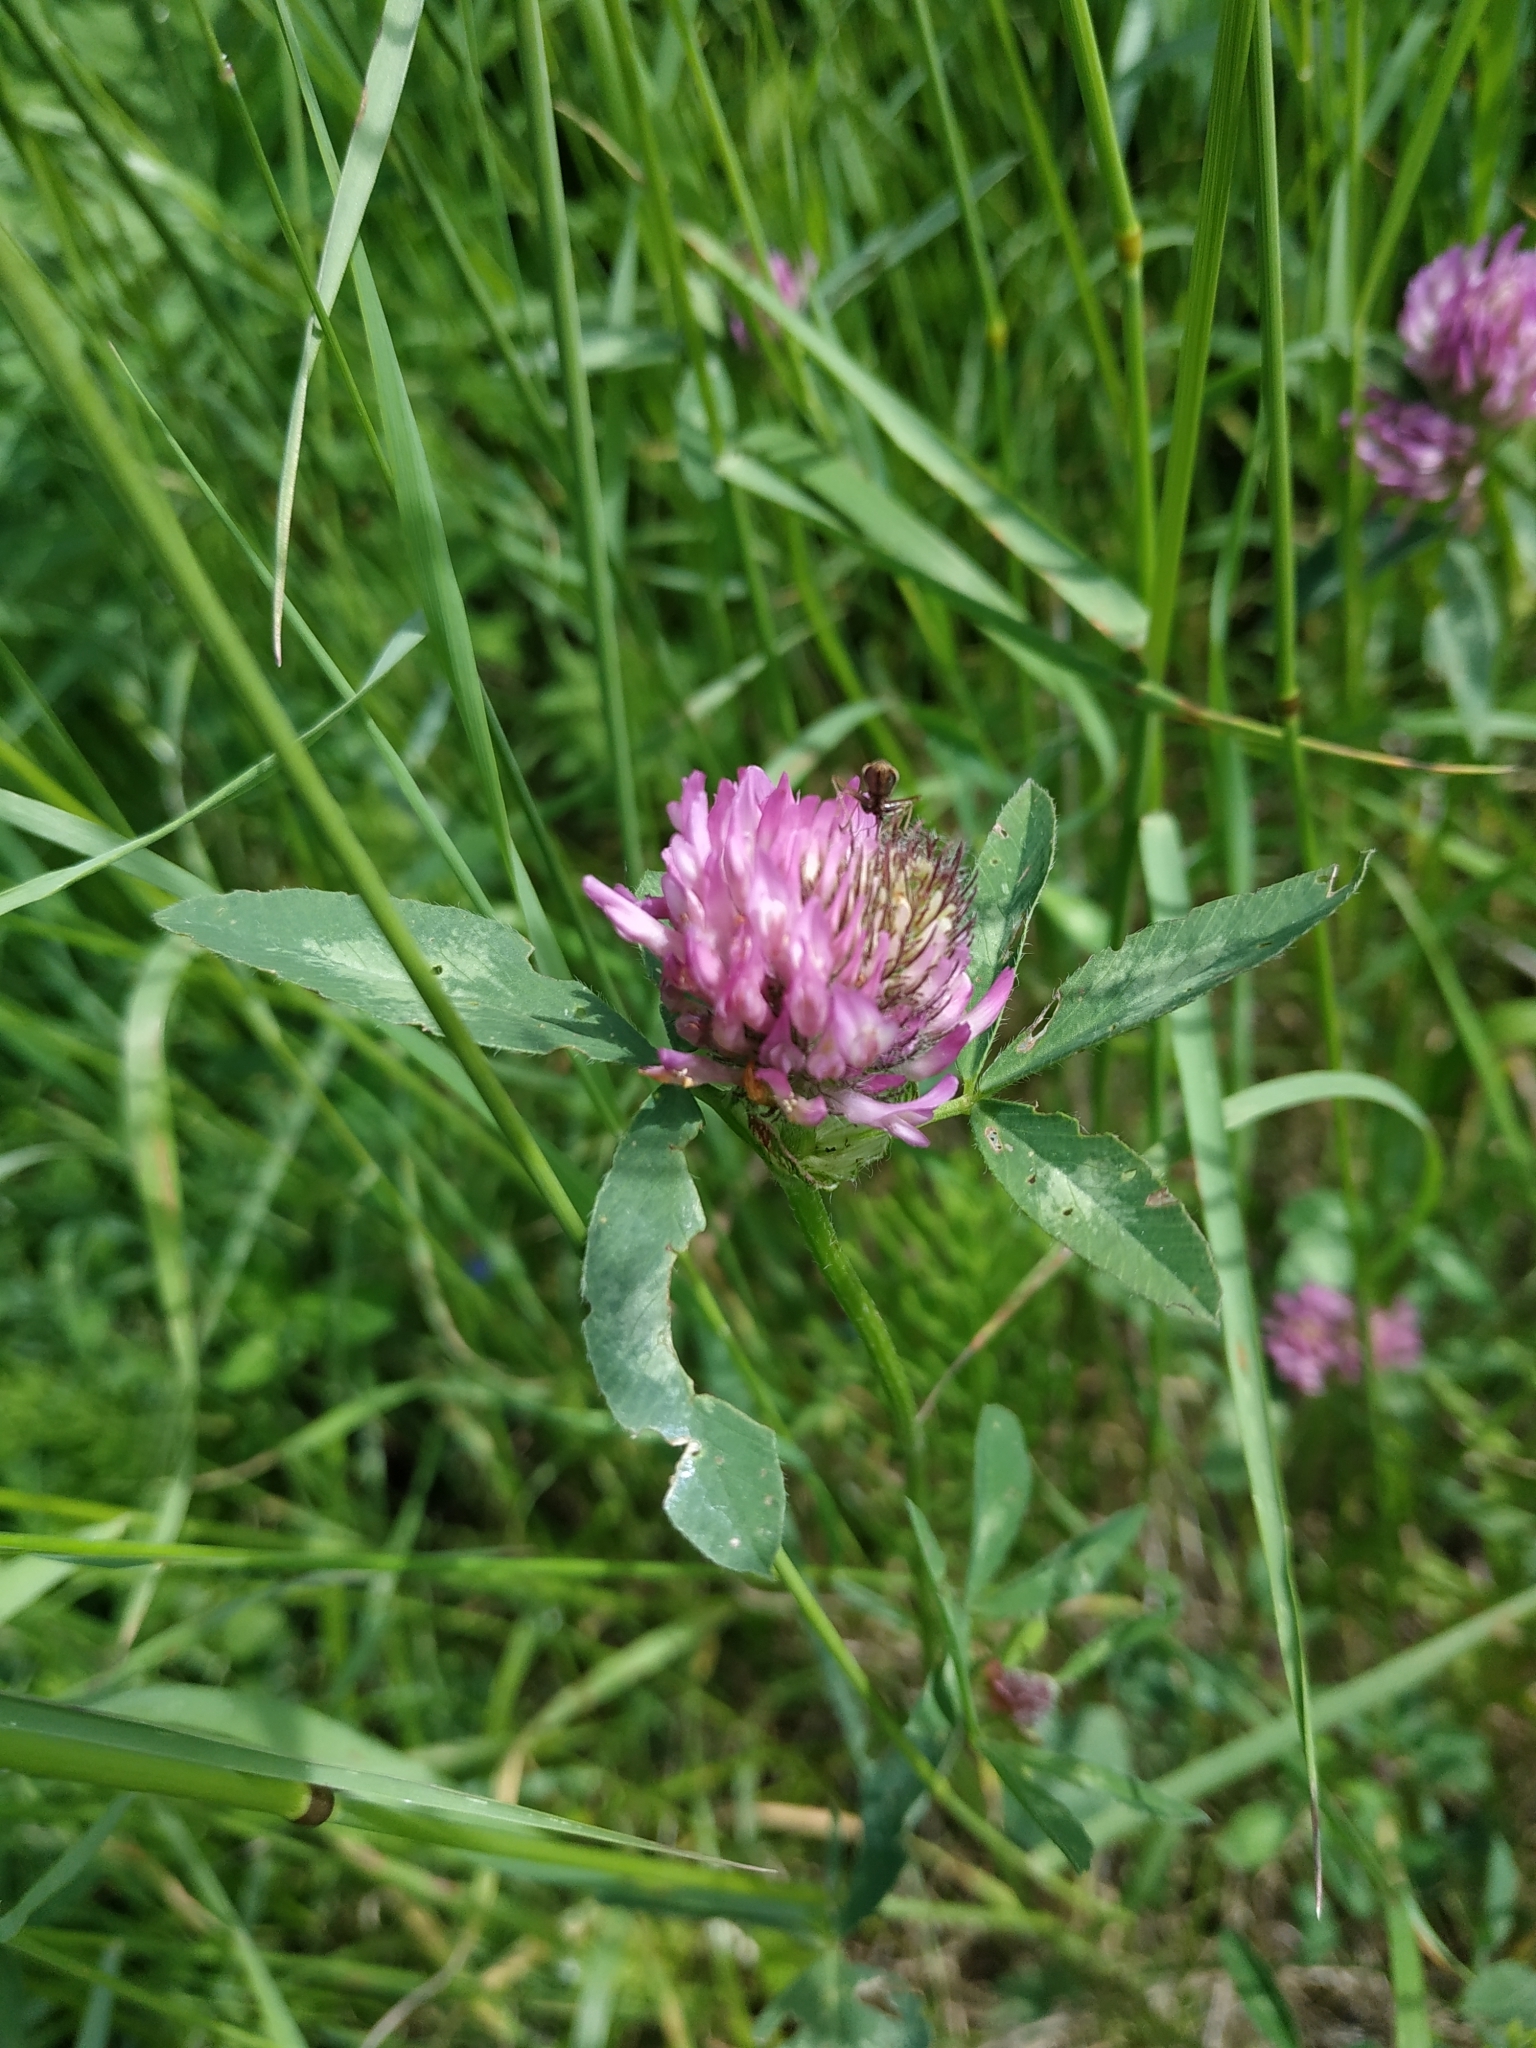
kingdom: Plantae
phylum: Tracheophyta
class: Magnoliopsida
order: Fabales
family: Fabaceae
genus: Trifolium
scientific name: Trifolium pratense
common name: Red clover
